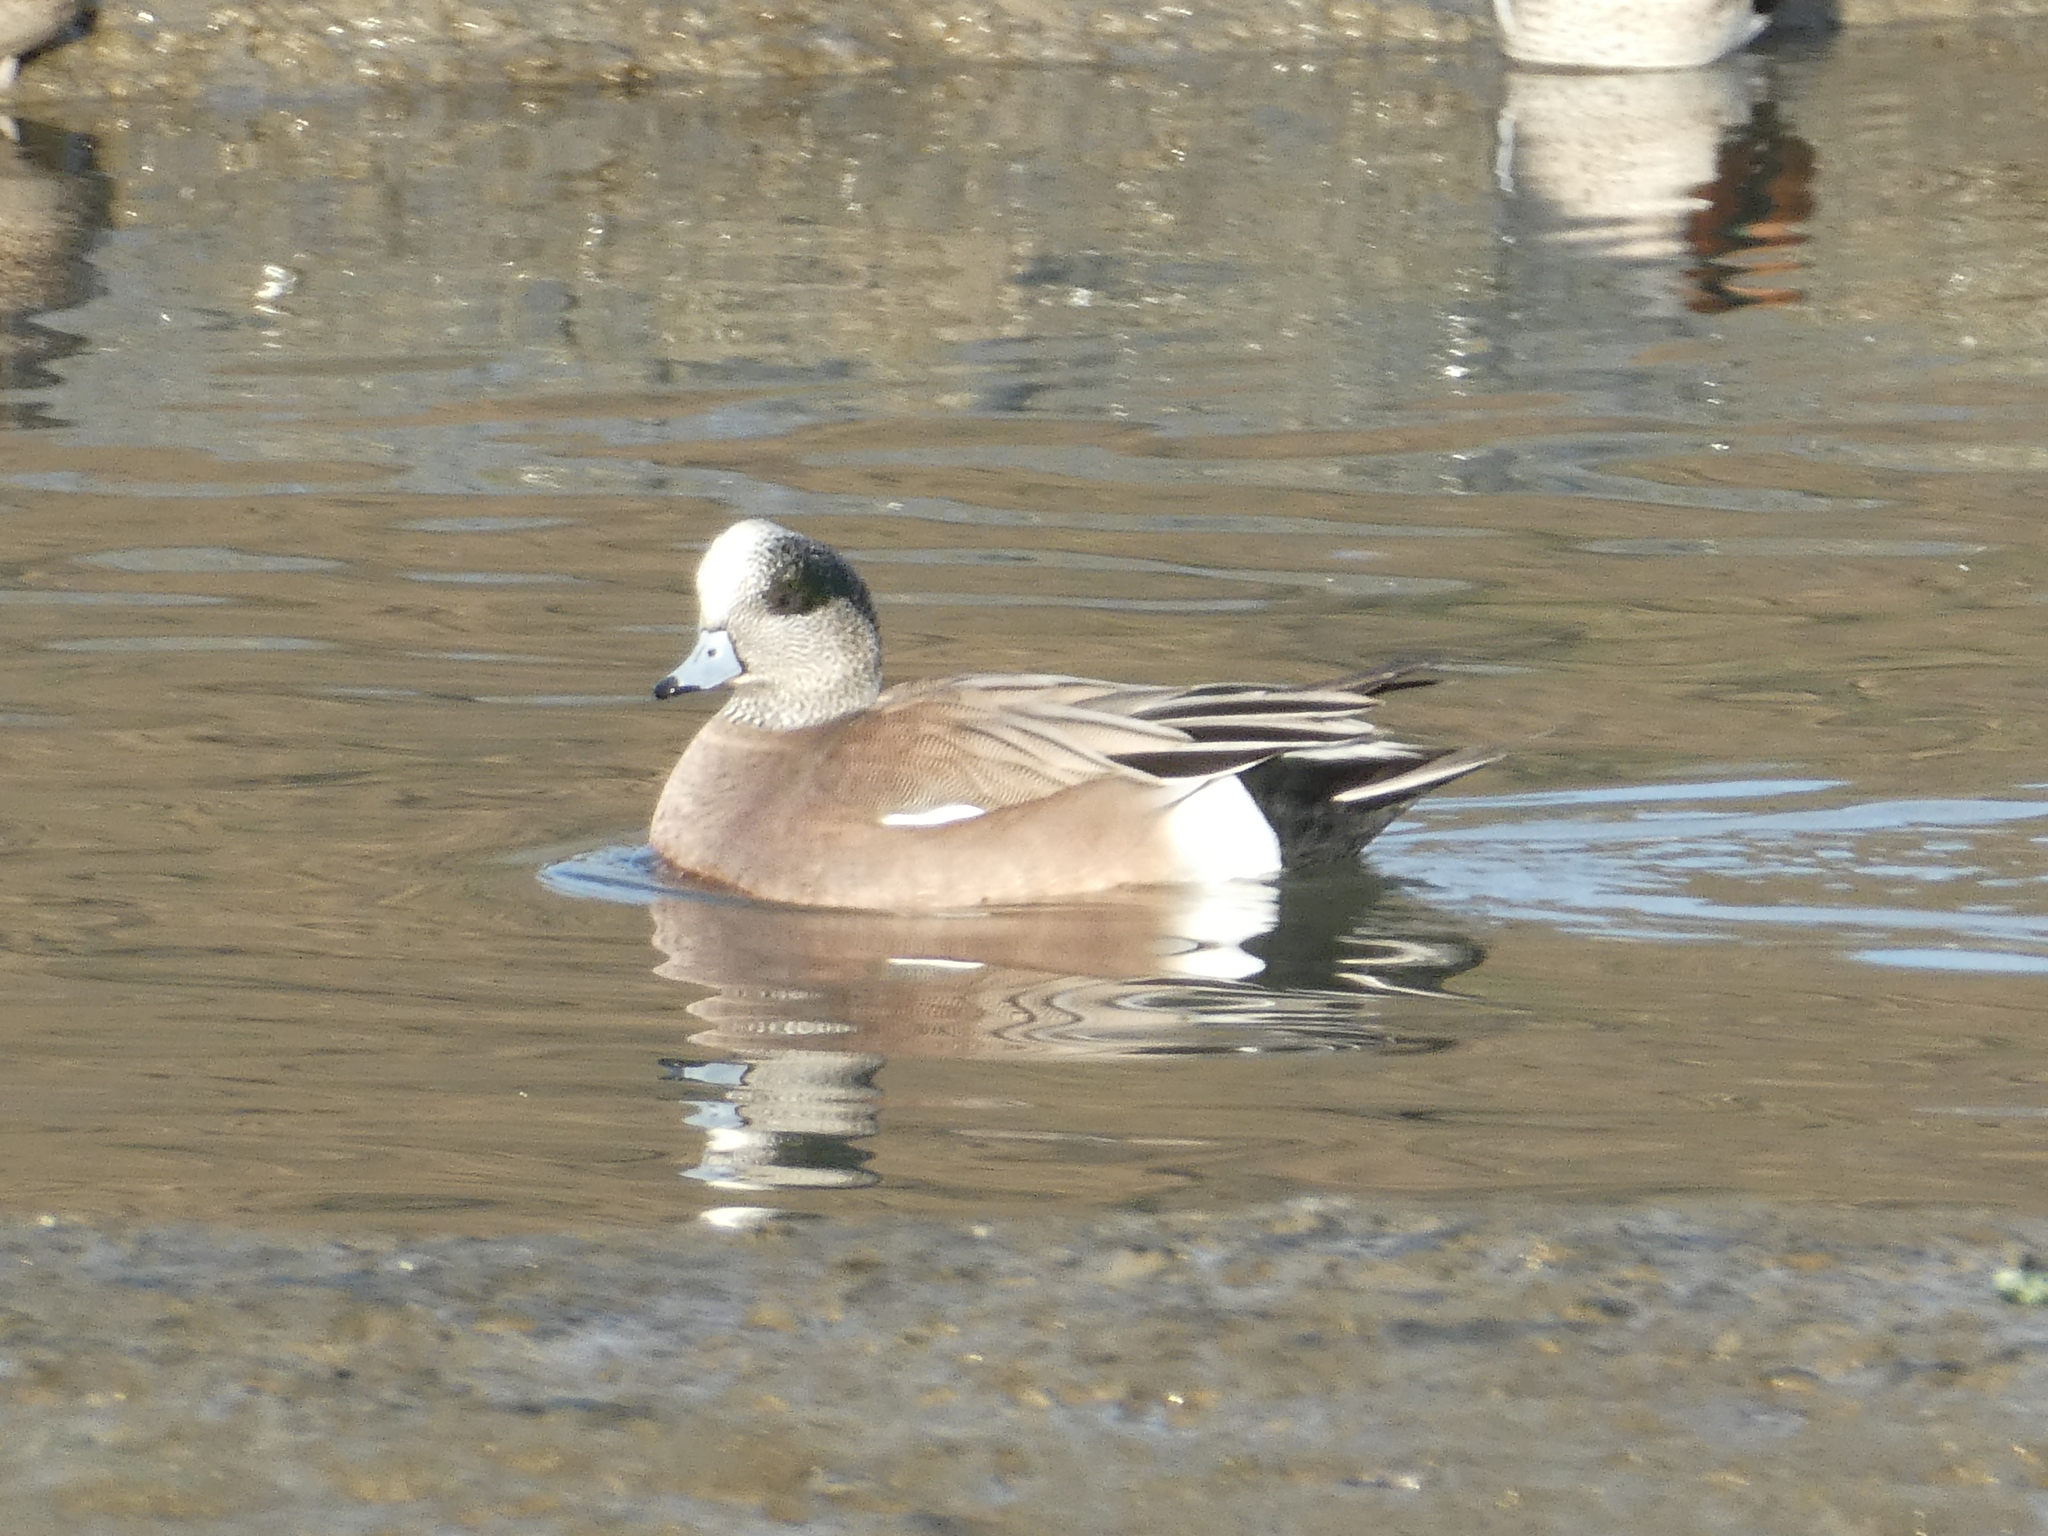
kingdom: Animalia
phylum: Chordata
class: Aves
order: Anseriformes
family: Anatidae
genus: Mareca
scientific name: Mareca americana
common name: American wigeon
